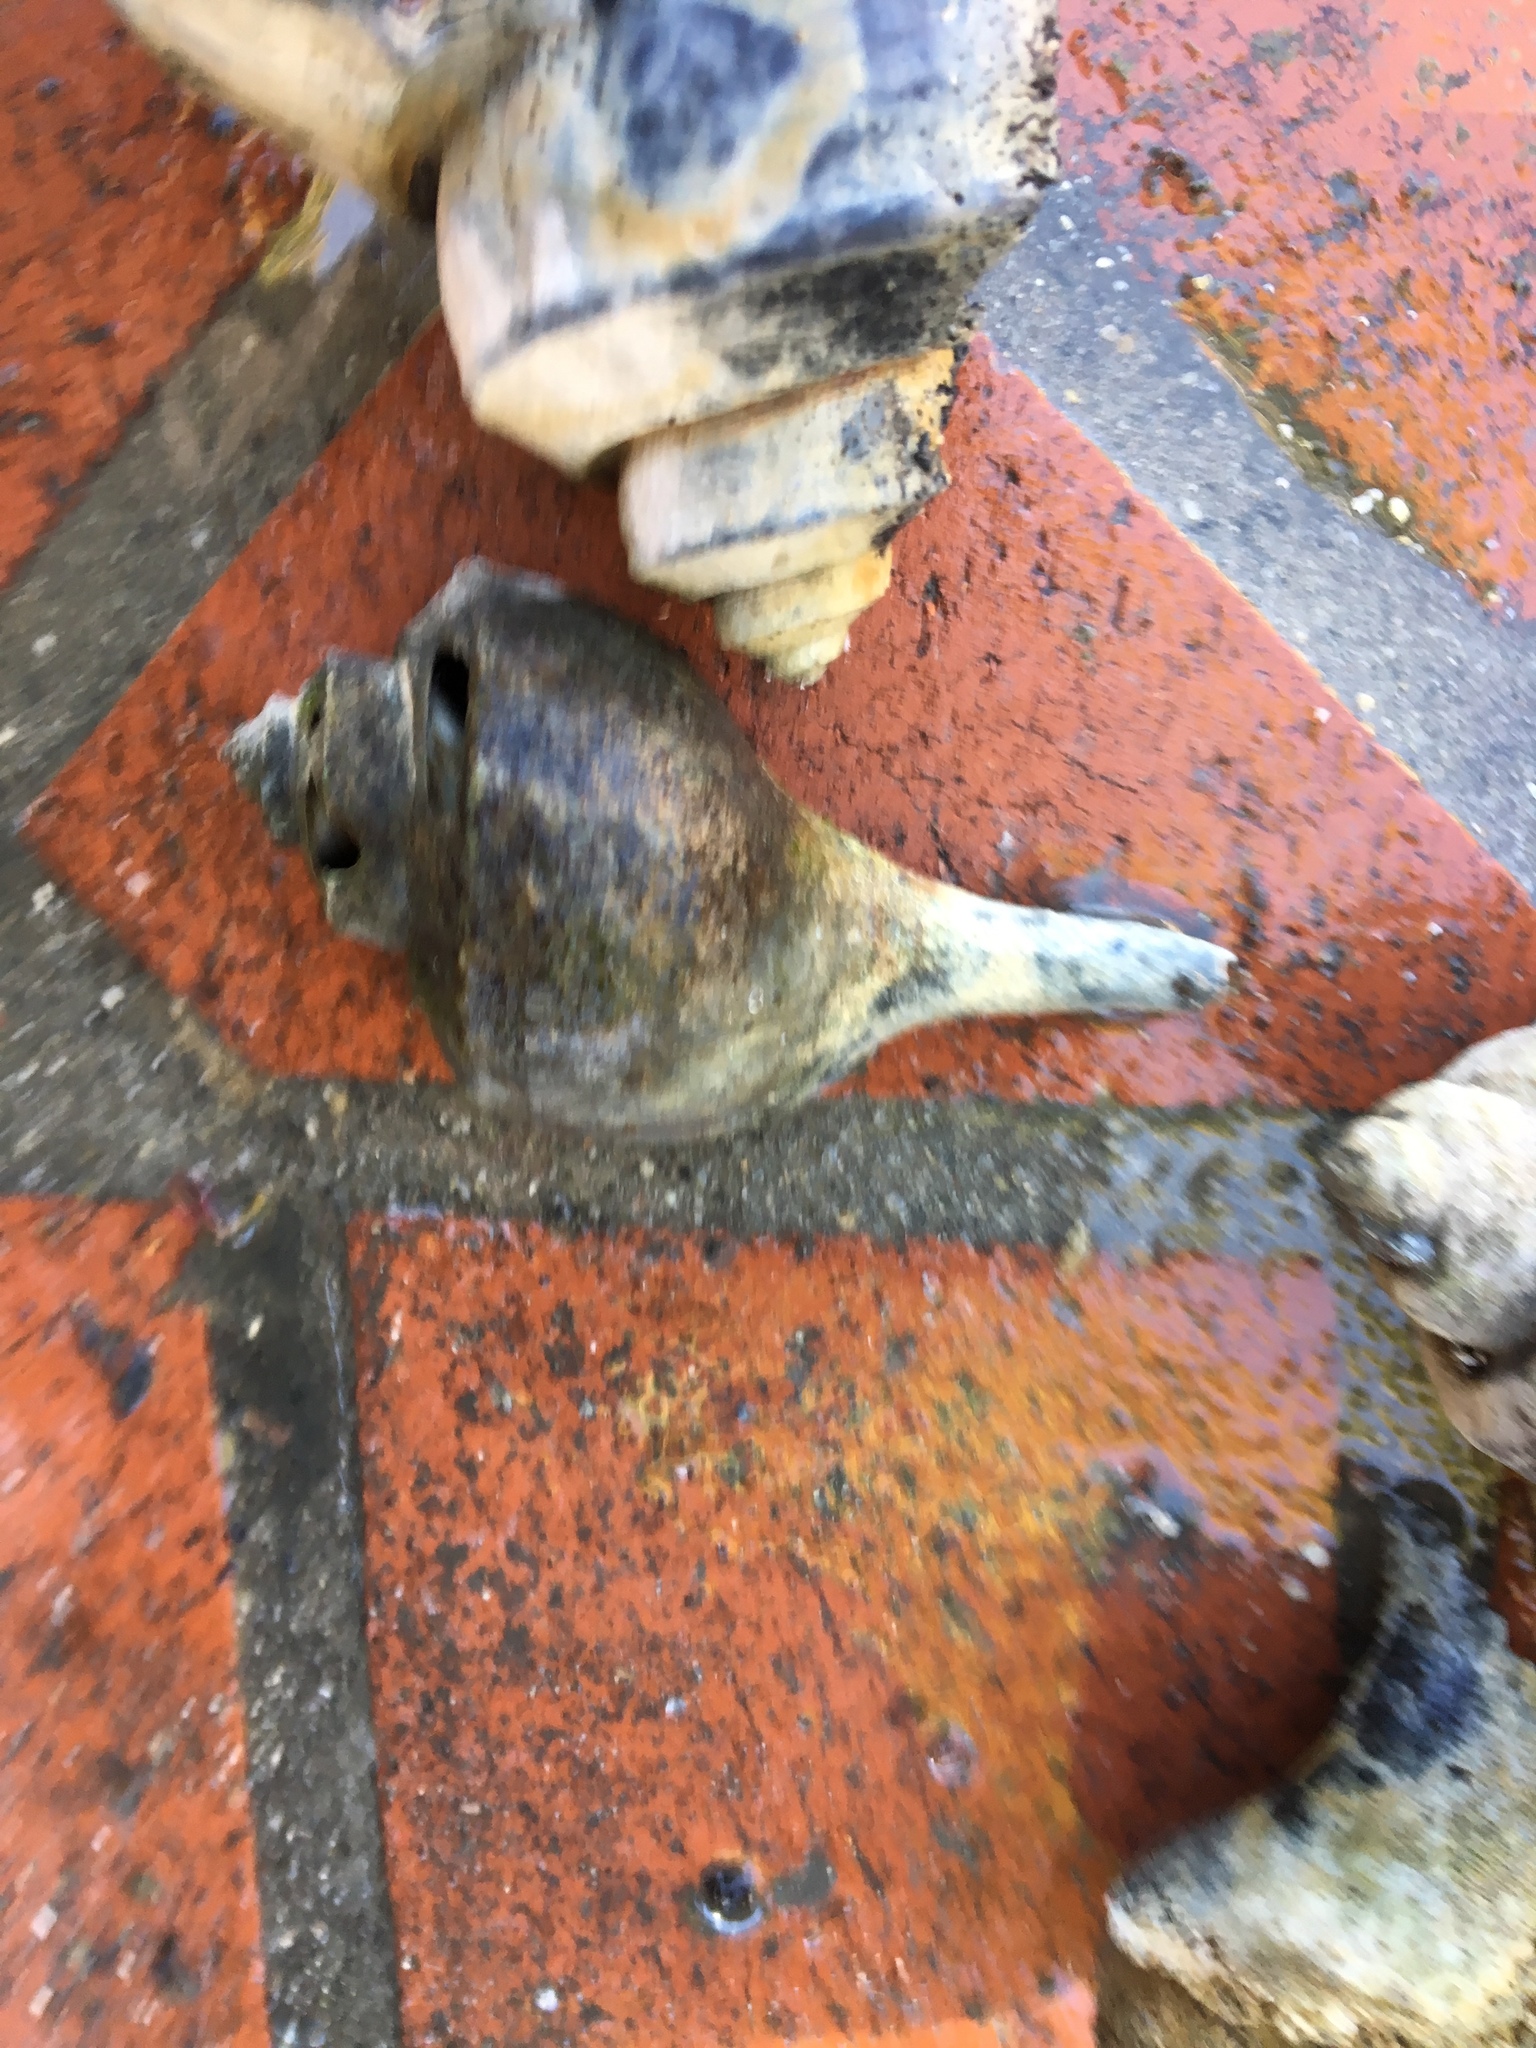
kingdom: Animalia
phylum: Mollusca
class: Gastropoda
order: Neogastropoda
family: Busyconidae
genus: Busycotypus
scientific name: Busycotypus canaliculatus
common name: Channeled whelk
